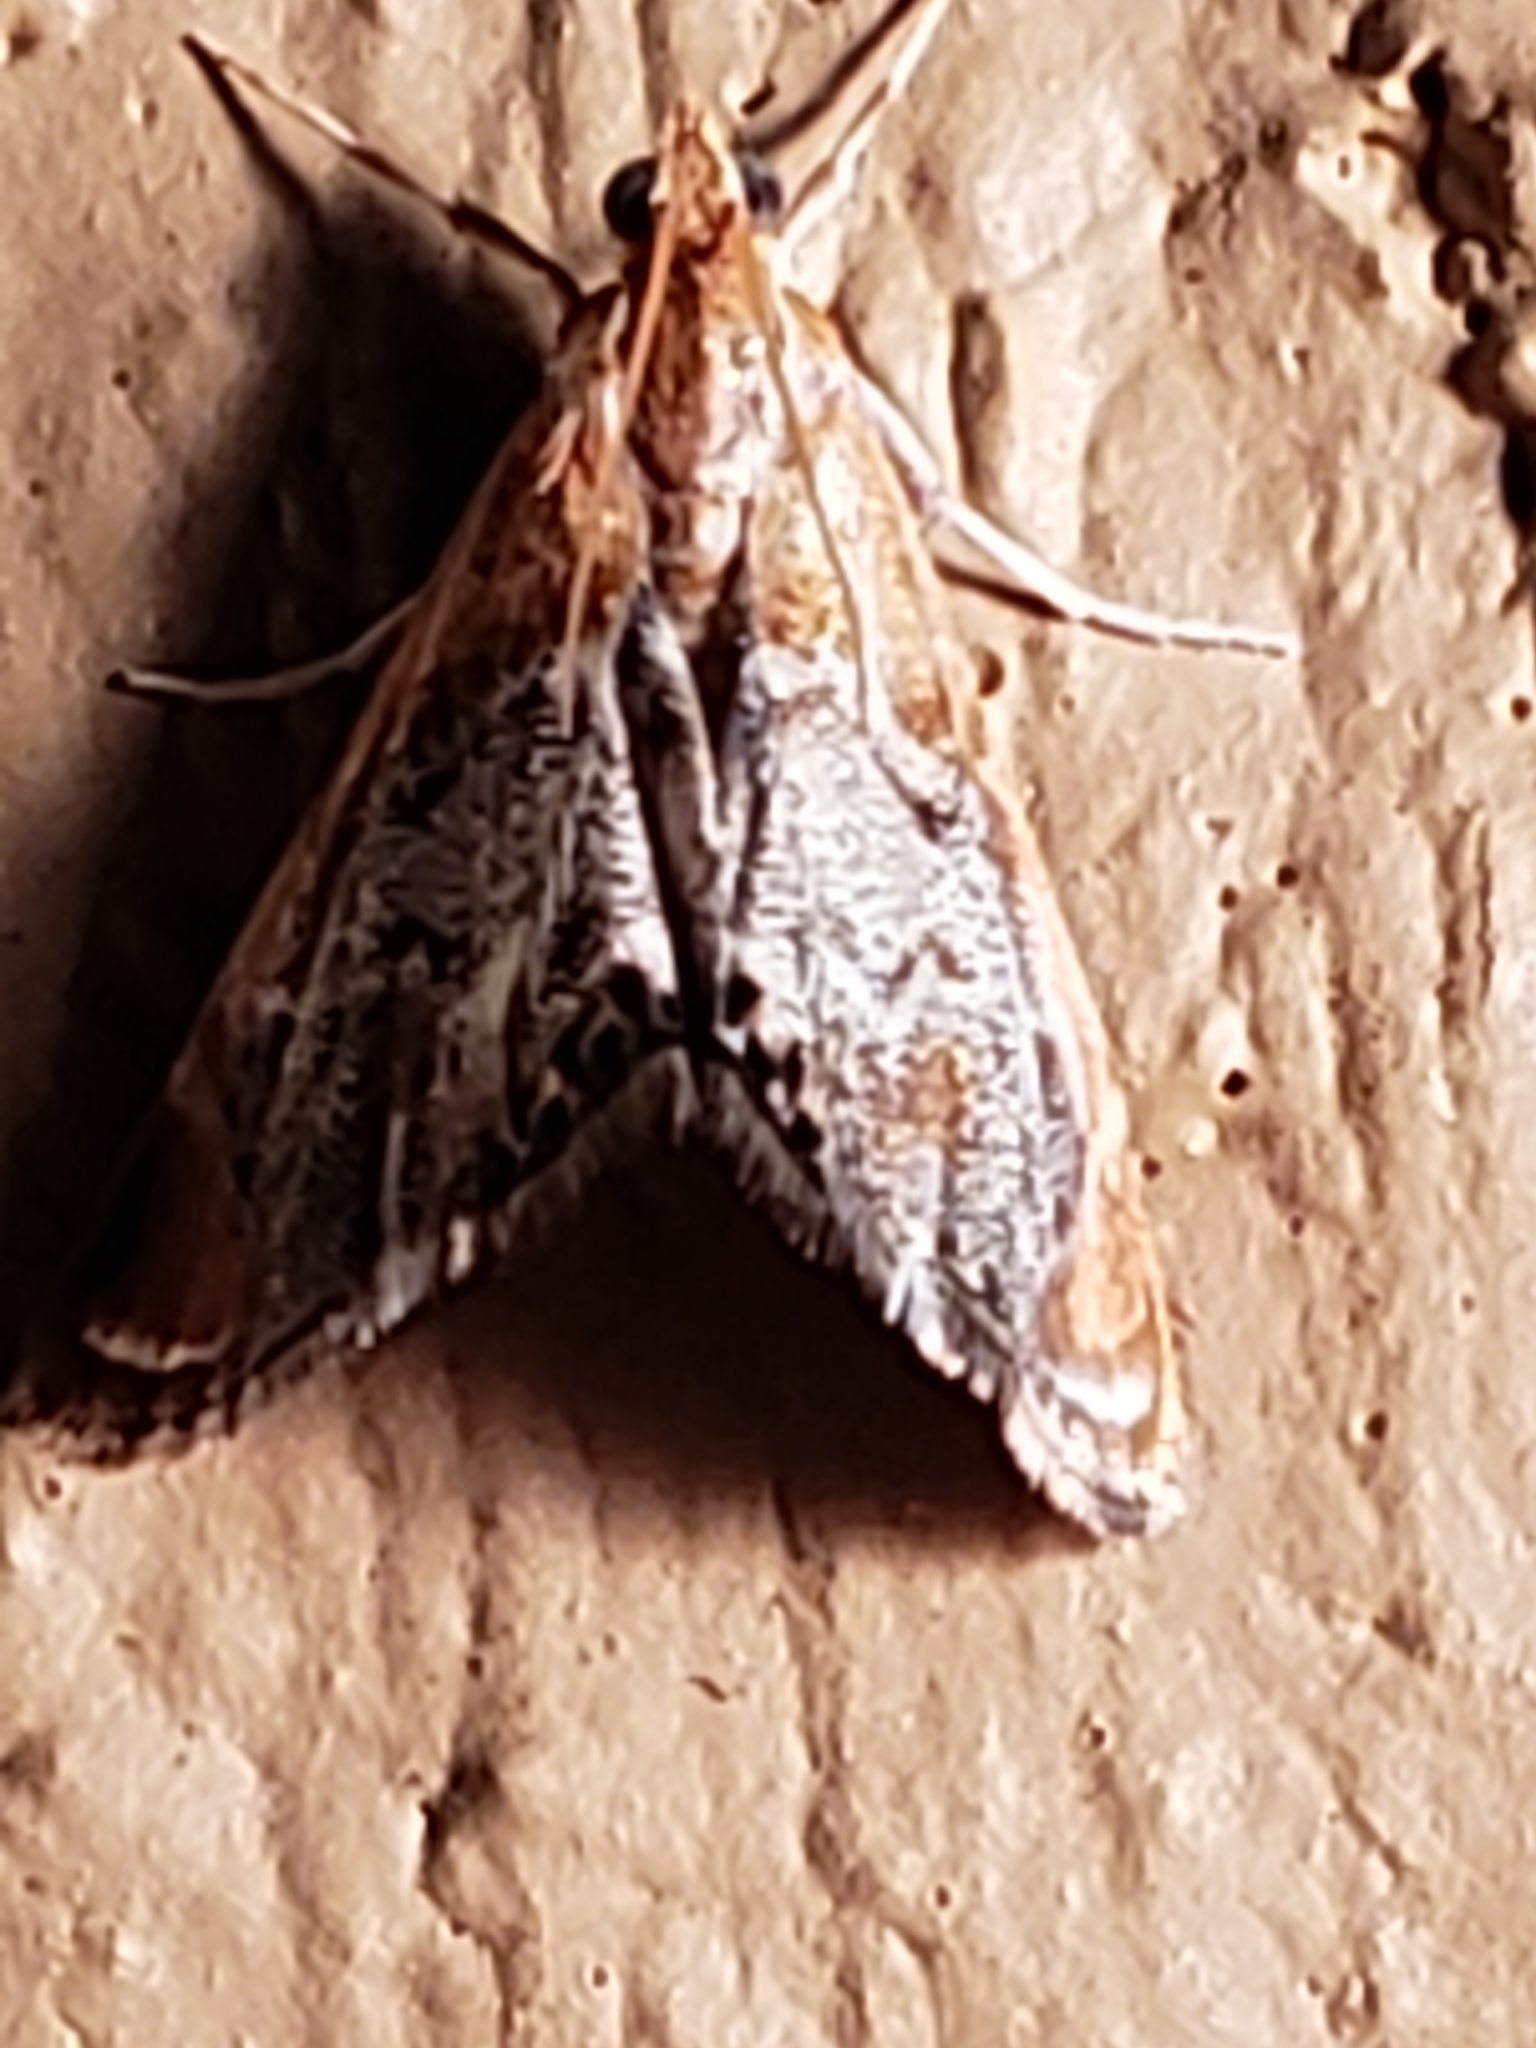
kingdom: Animalia
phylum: Arthropoda
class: Insecta
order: Lepidoptera
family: Crambidae
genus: Chalcoela
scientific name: Chalcoela iphitalis
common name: Sooty-winged chalcoela moth
